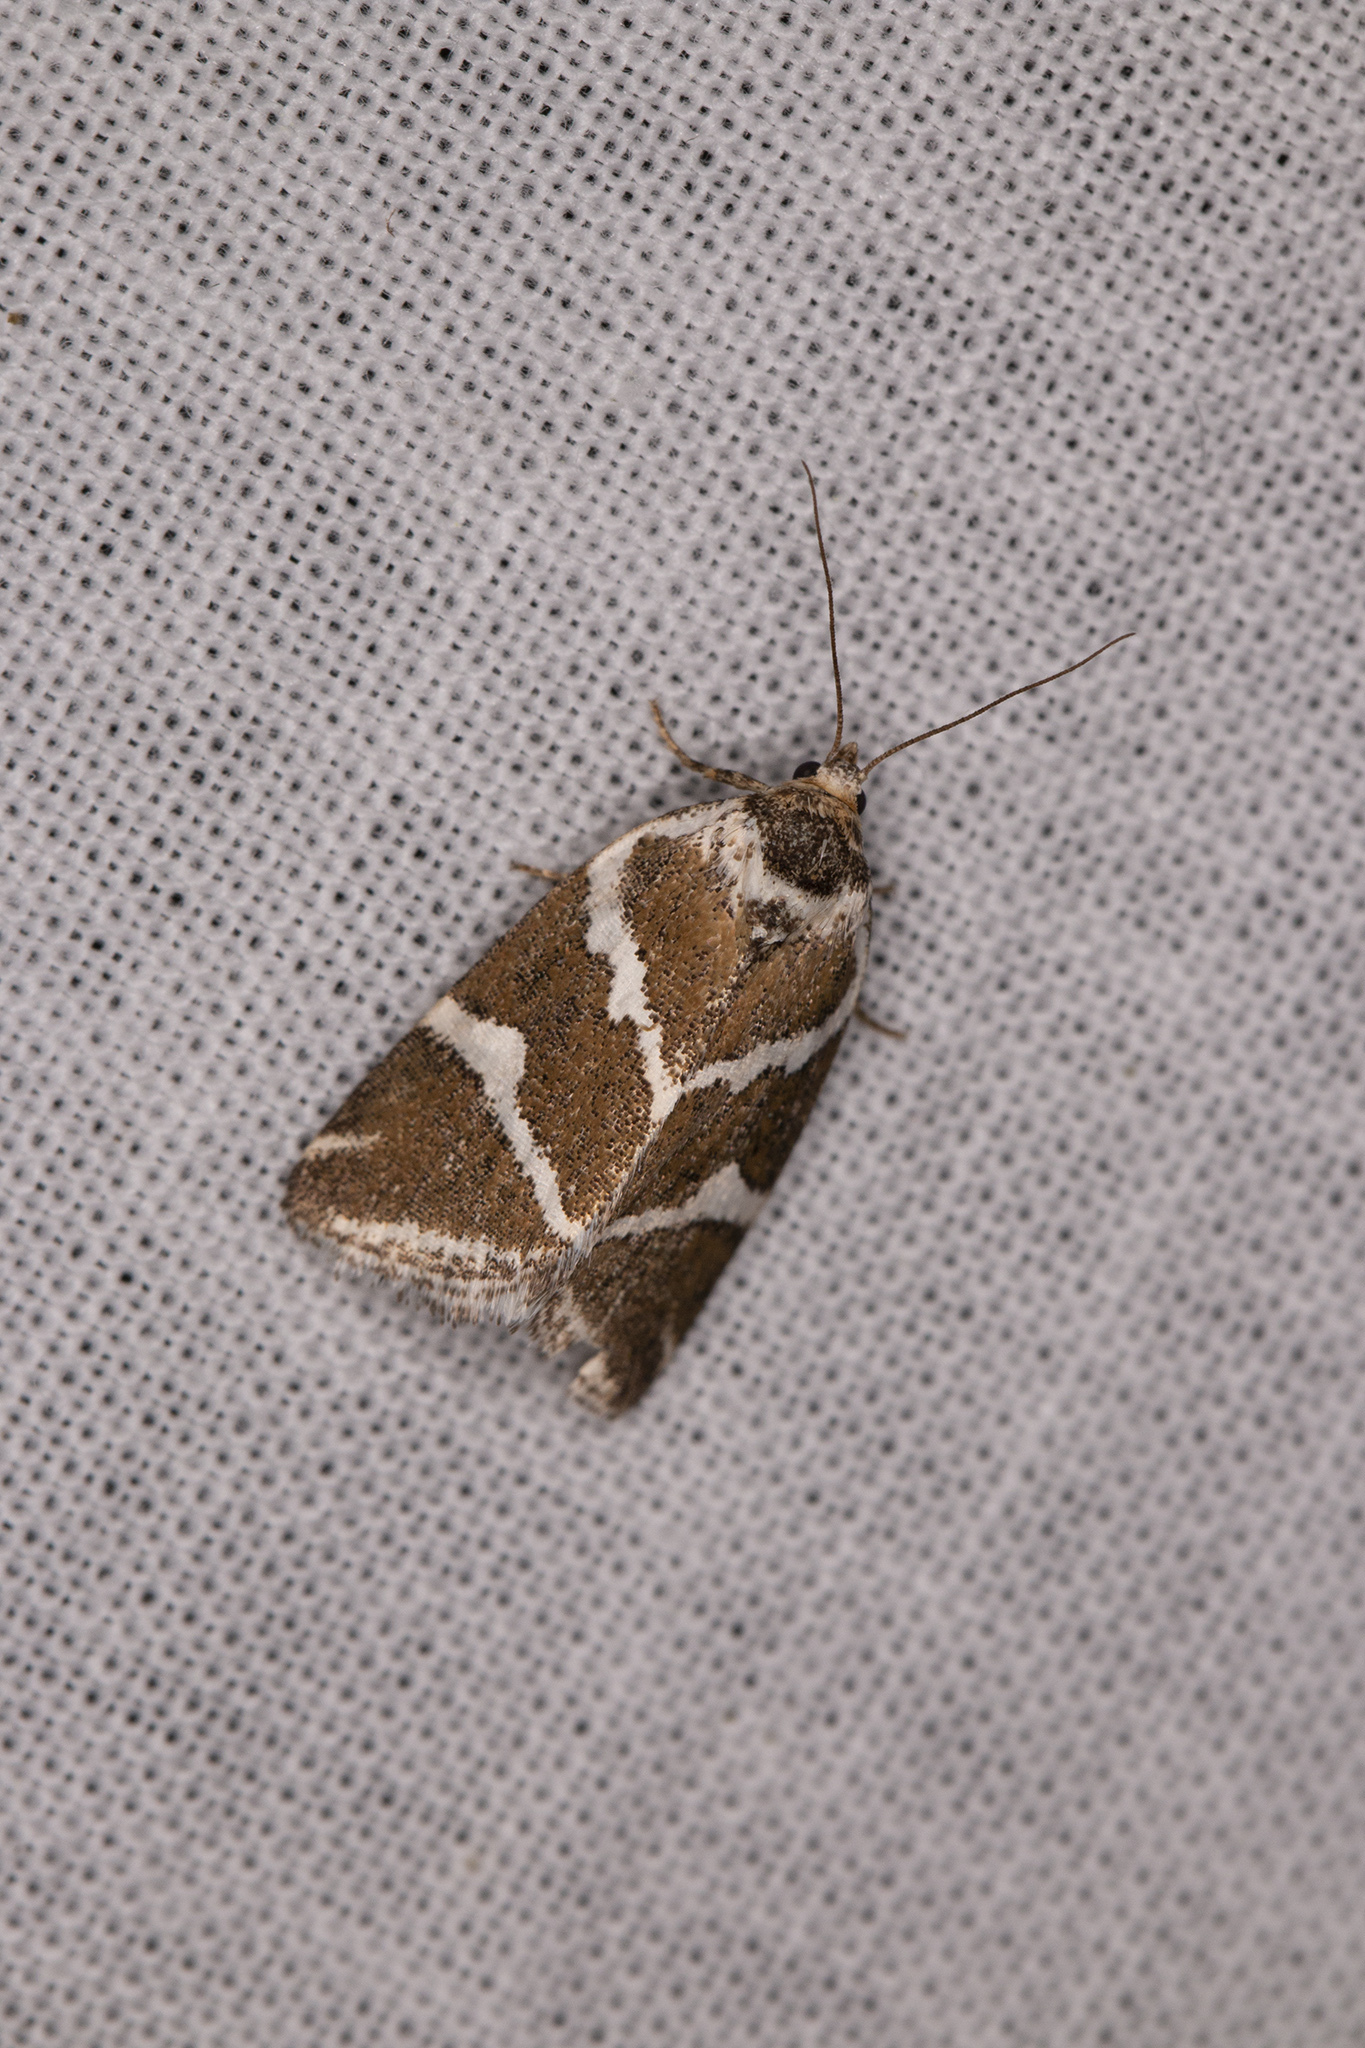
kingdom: Animalia
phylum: Arthropoda
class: Insecta
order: Lepidoptera
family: Noctuidae
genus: Deltote
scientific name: Deltote bankiana
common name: Silver barred
